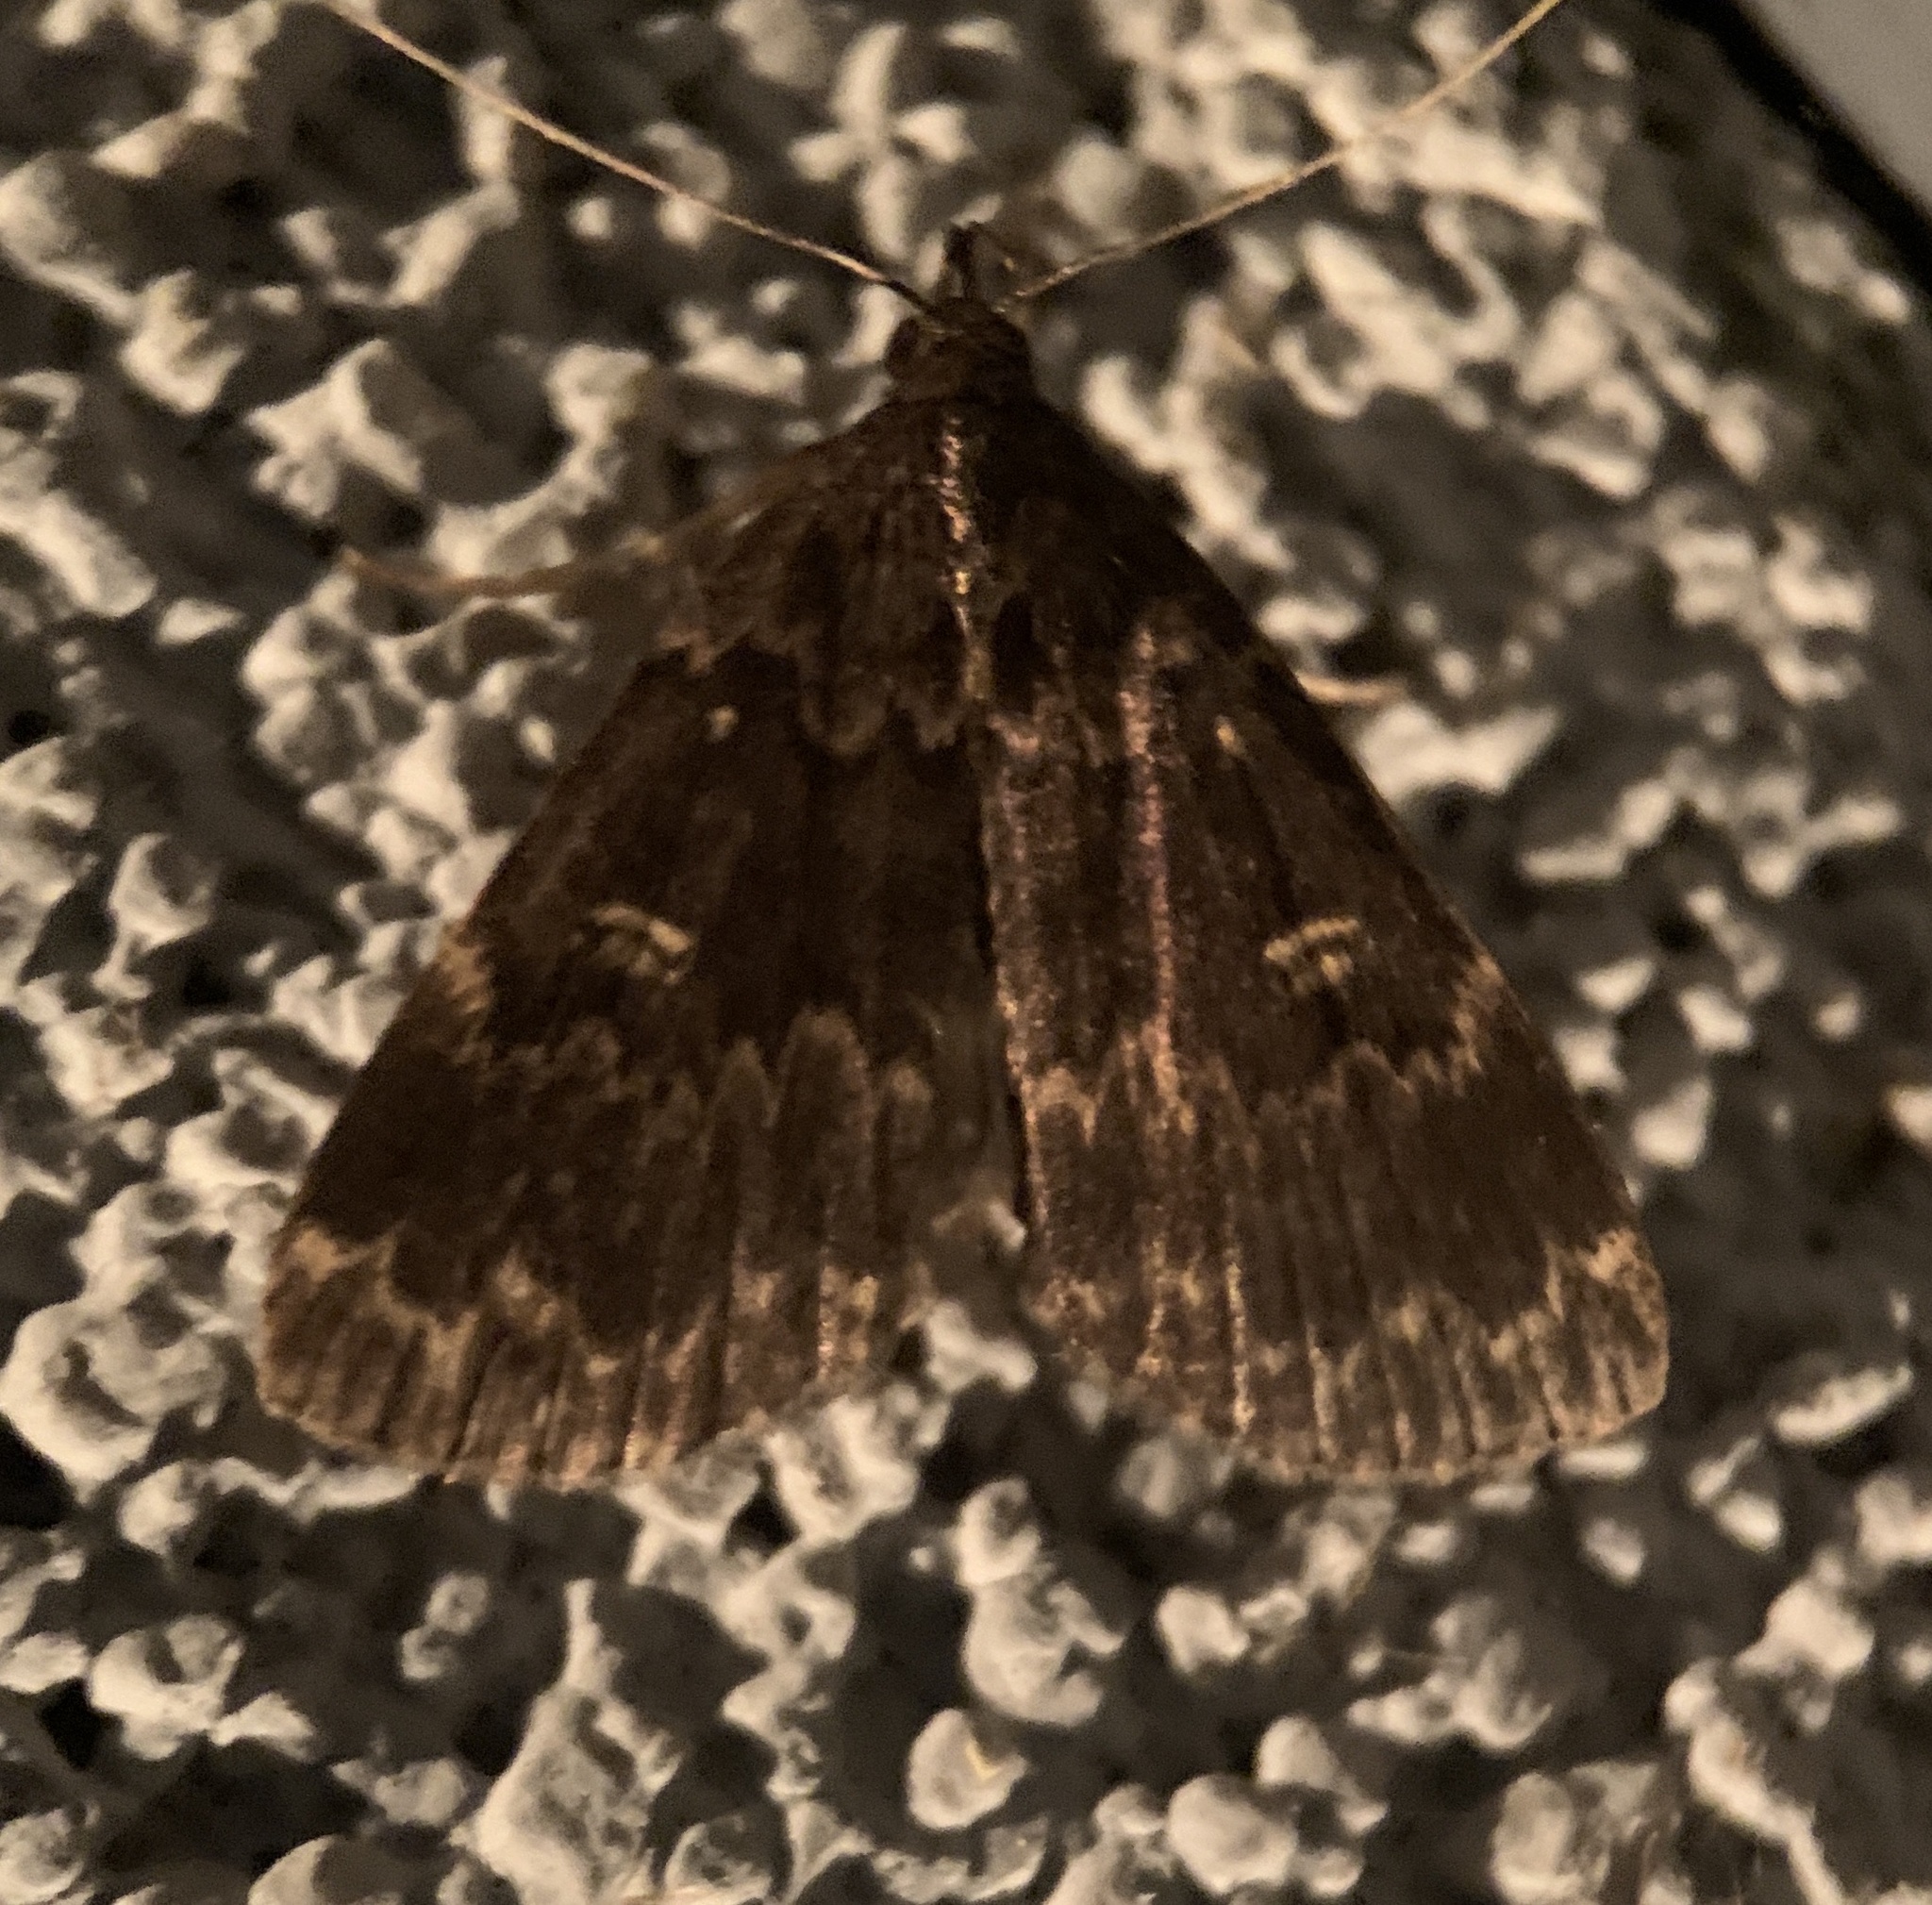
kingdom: Animalia
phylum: Arthropoda
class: Insecta
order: Lepidoptera
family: Erebidae
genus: Idia
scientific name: Idia lubricalis
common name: Twin-striped tabby
